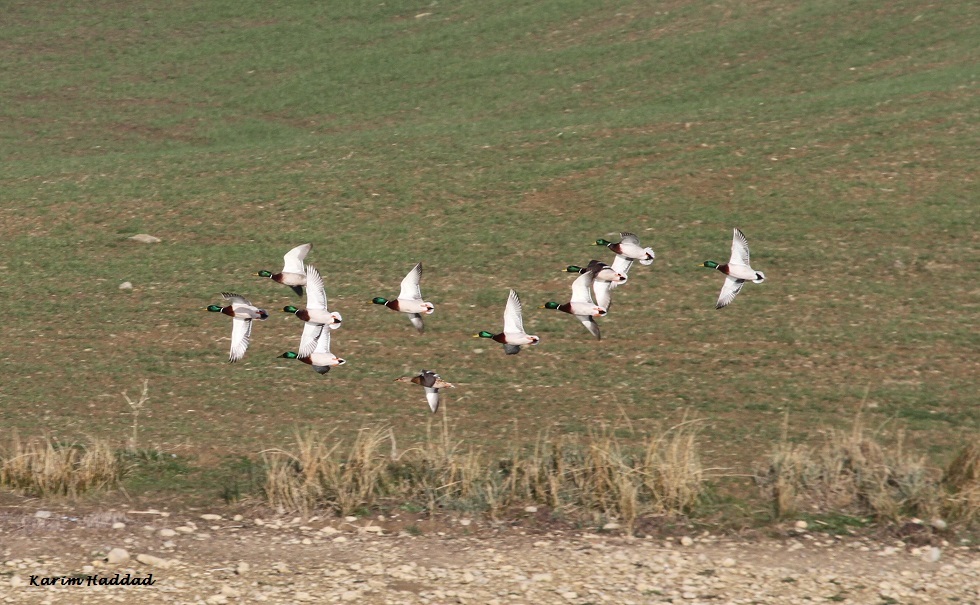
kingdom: Animalia
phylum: Chordata
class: Aves
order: Anseriformes
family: Anatidae
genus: Anas
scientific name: Anas platyrhynchos
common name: Mallard
